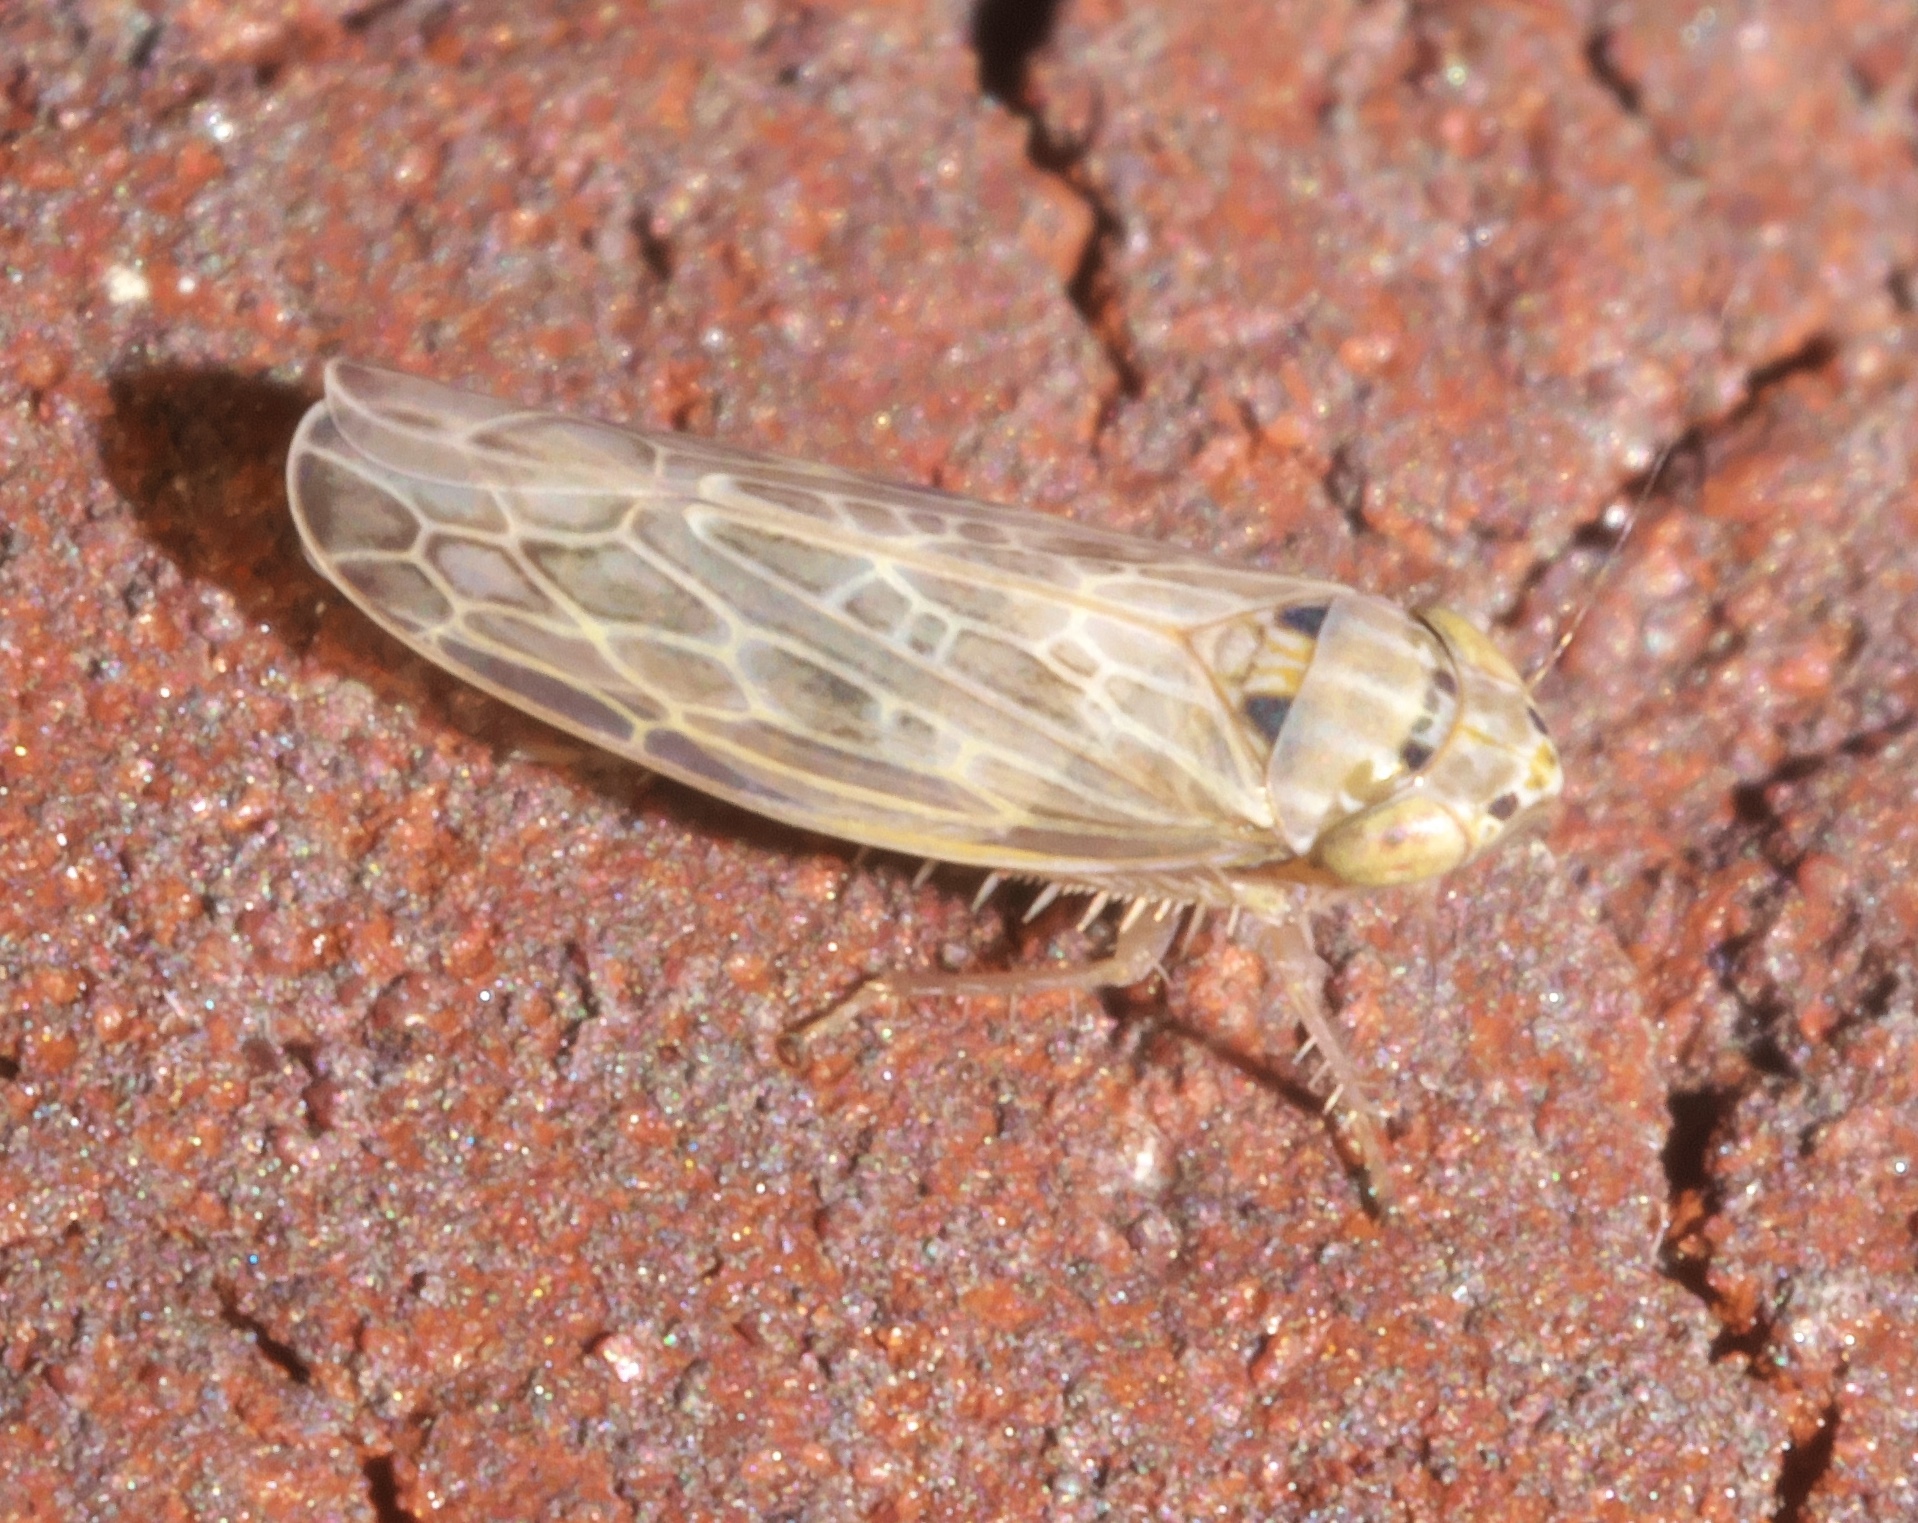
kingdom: Animalia
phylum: Arthropoda
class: Insecta
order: Hemiptera
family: Cicadellidae
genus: Endria
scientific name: Endria inimicus
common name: Painted leafhopper
